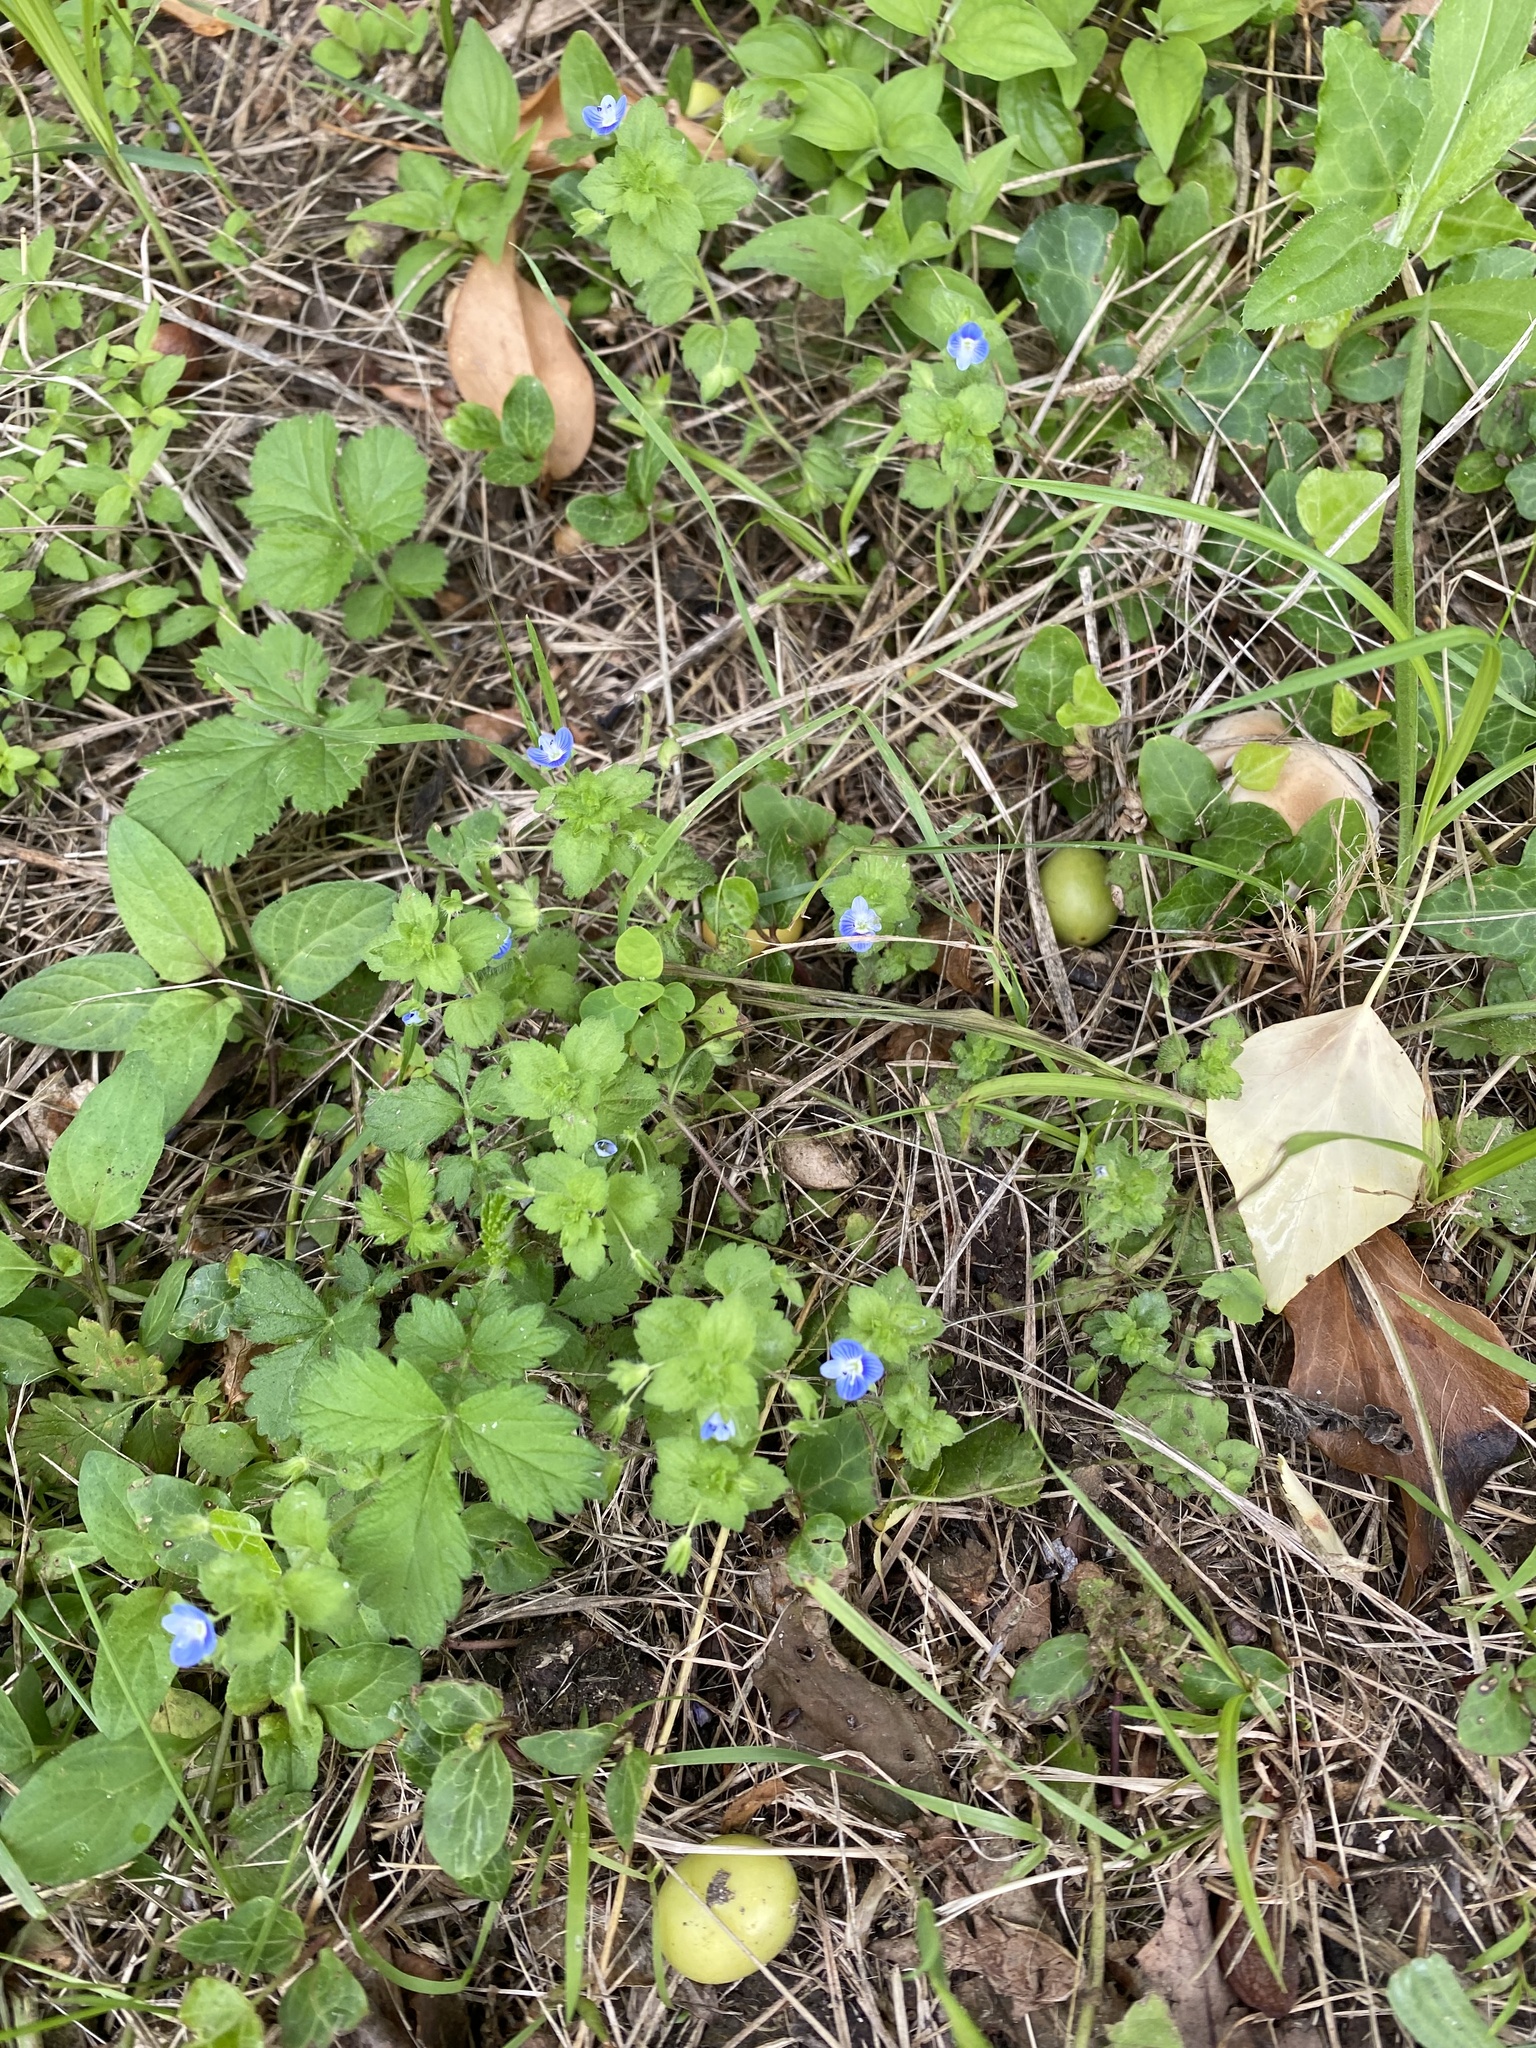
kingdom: Plantae
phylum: Tracheophyta
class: Magnoliopsida
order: Lamiales
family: Plantaginaceae
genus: Veronica
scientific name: Veronica persica
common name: Common field-speedwell
